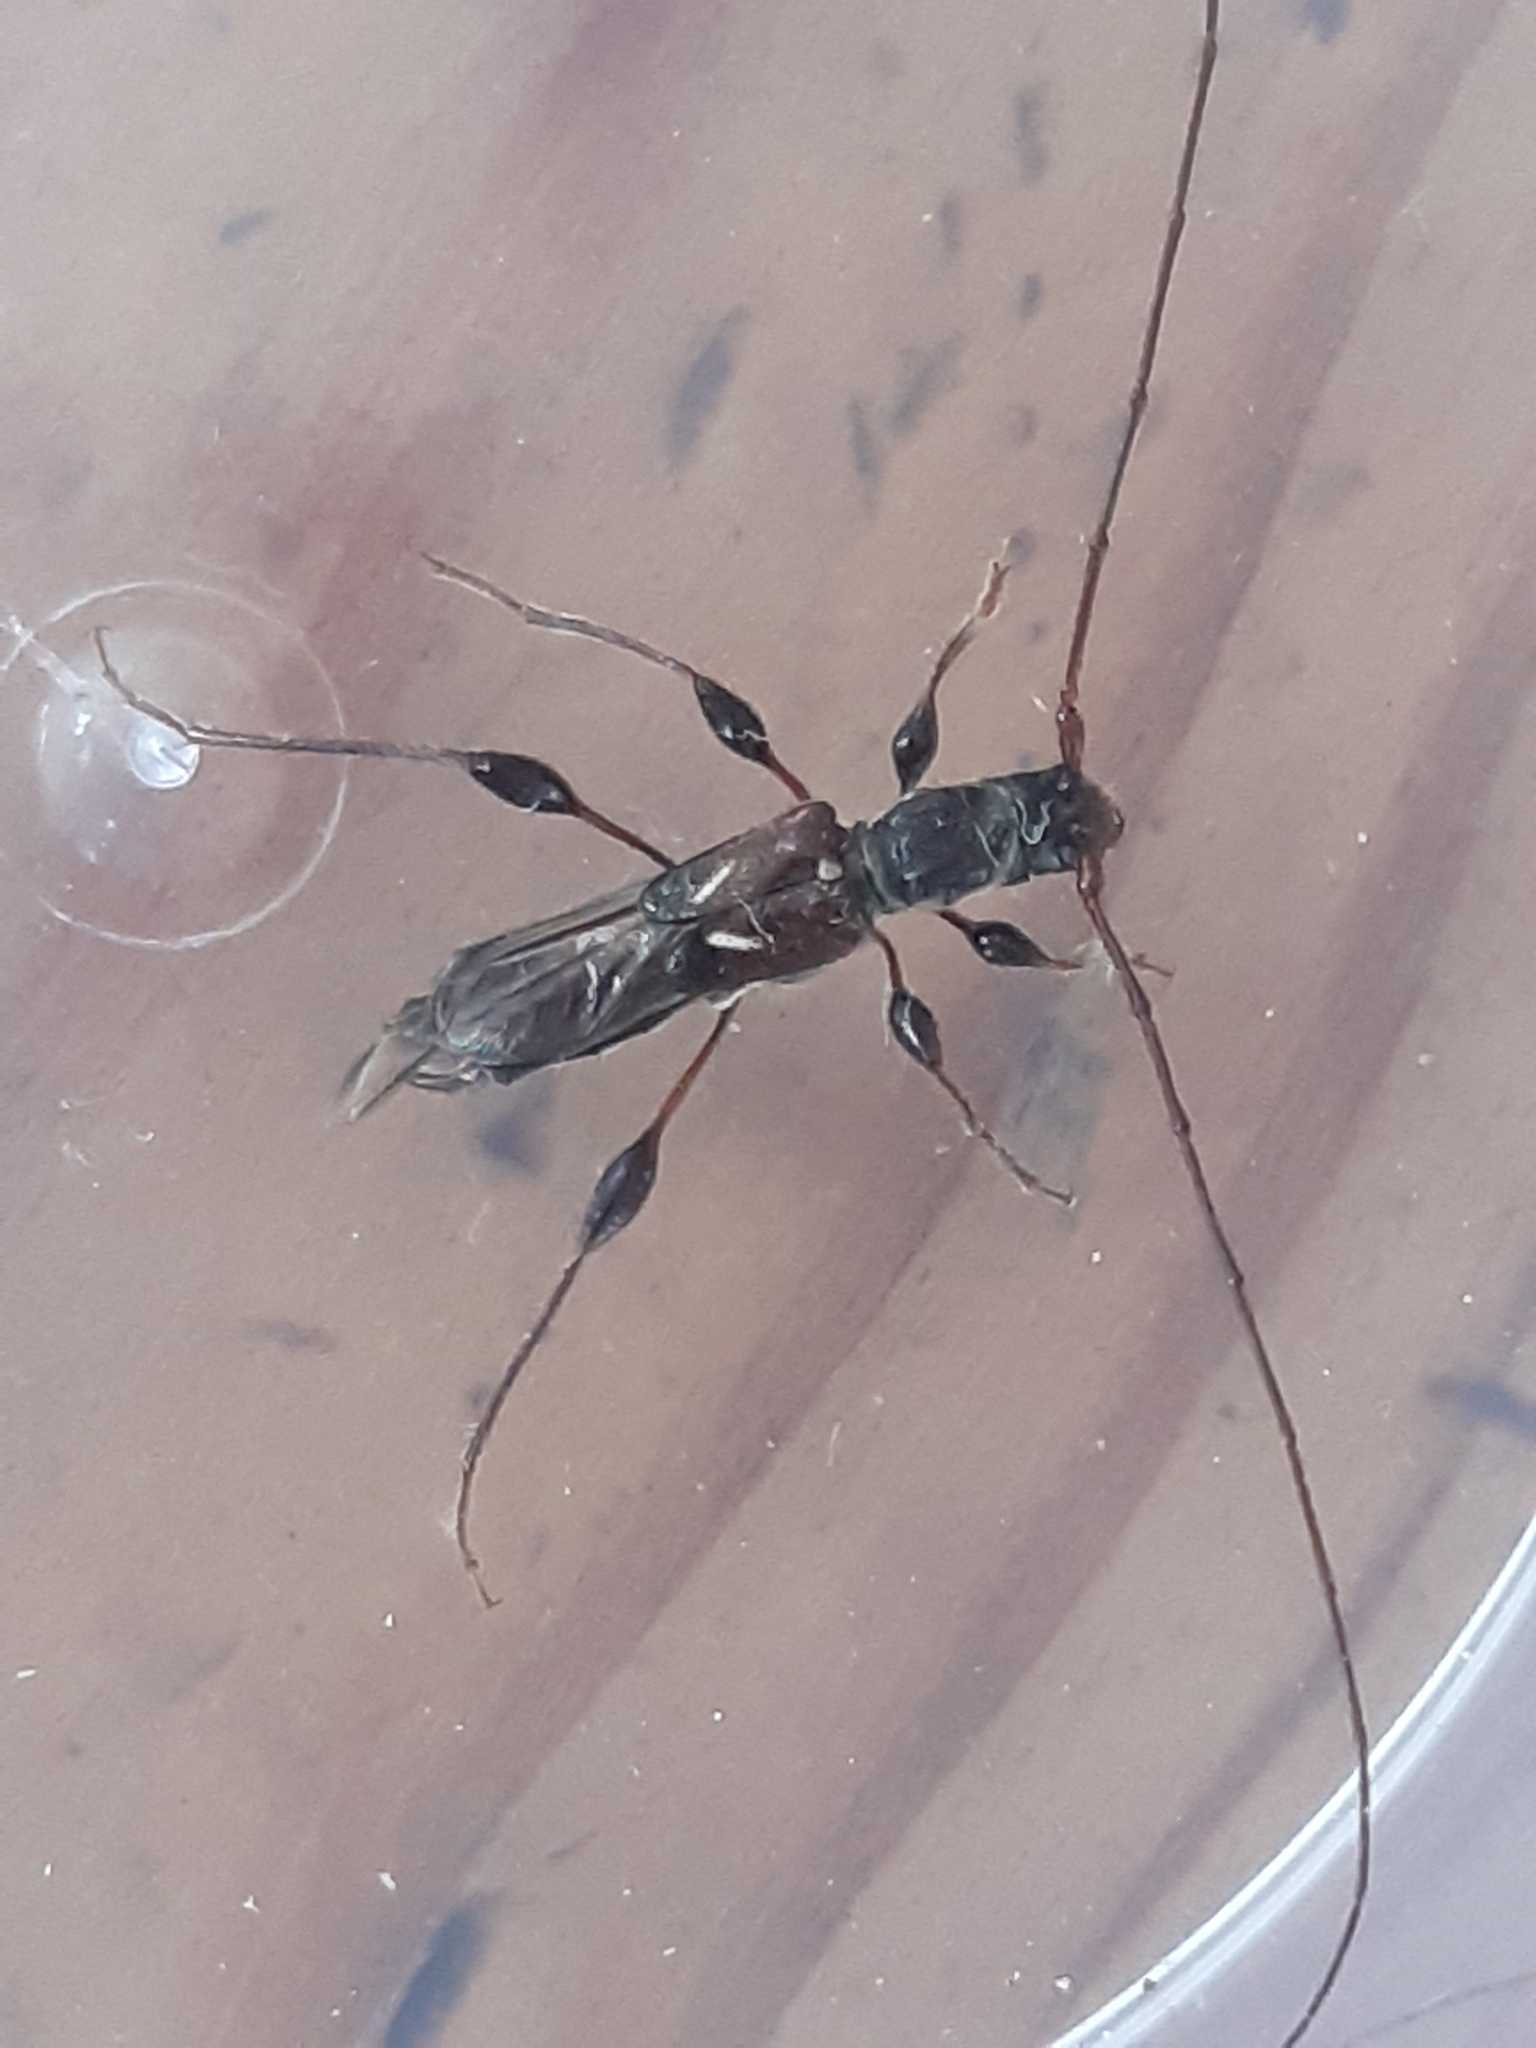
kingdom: Animalia
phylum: Arthropoda
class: Insecta
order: Coleoptera
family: Cerambycidae
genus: Molorchus
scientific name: Molorchus minor
